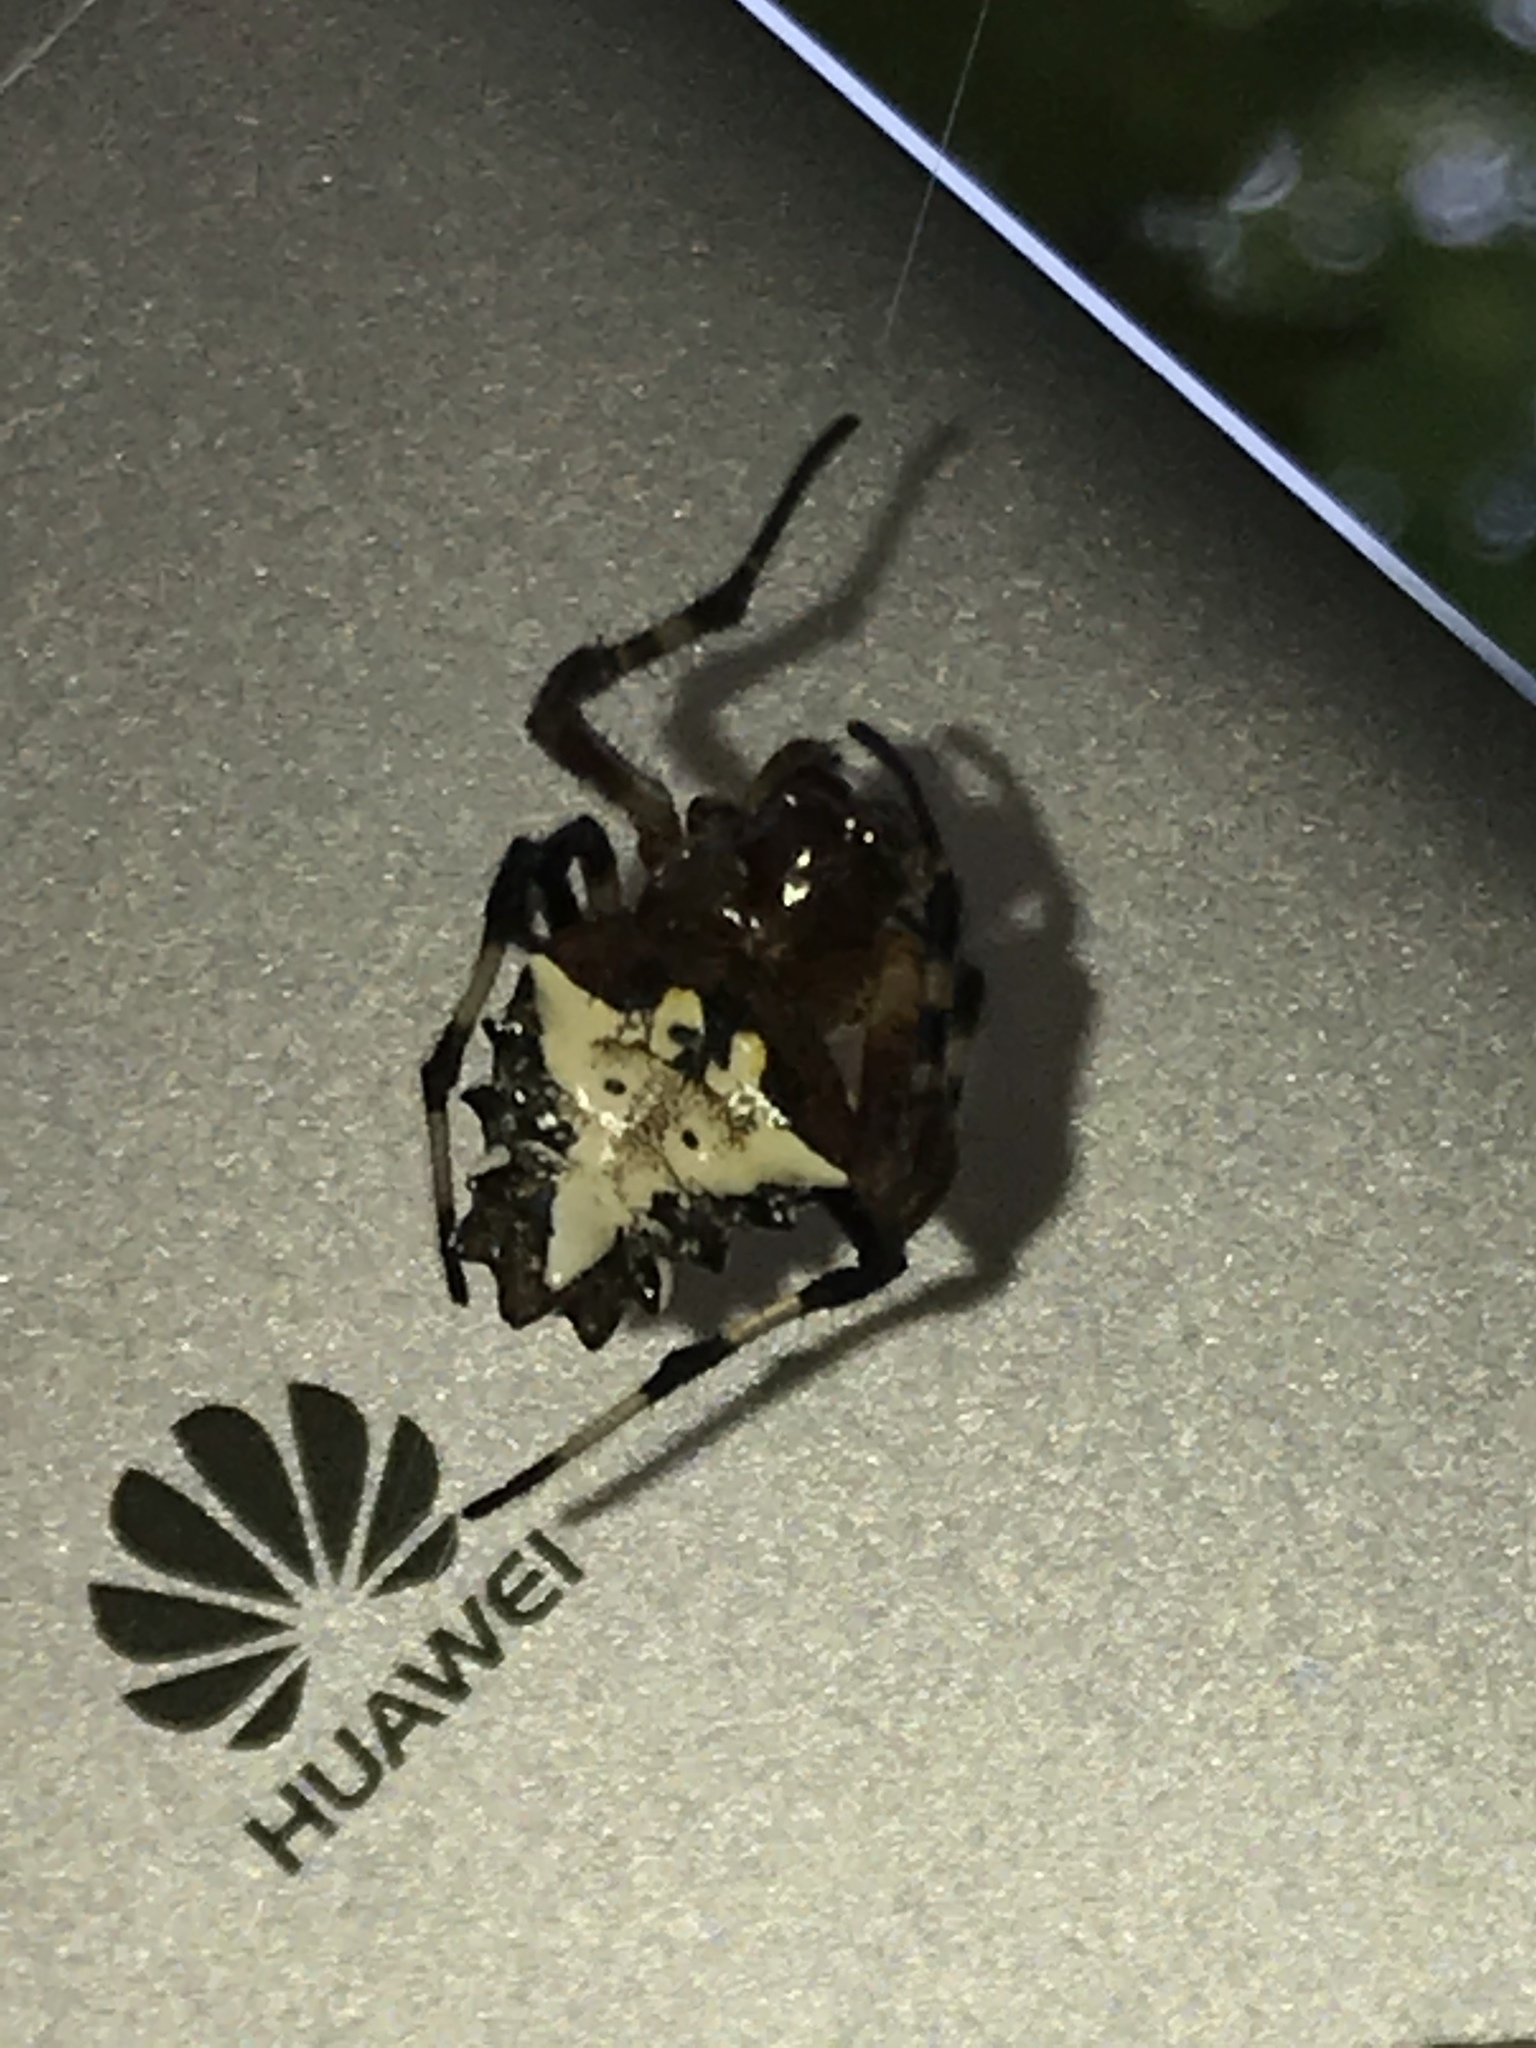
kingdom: Animalia
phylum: Arthropoda
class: Arachnida
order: Araneae
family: Araneidae
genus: Verrucosa
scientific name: Verrucosa arenata
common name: Orb weavers
